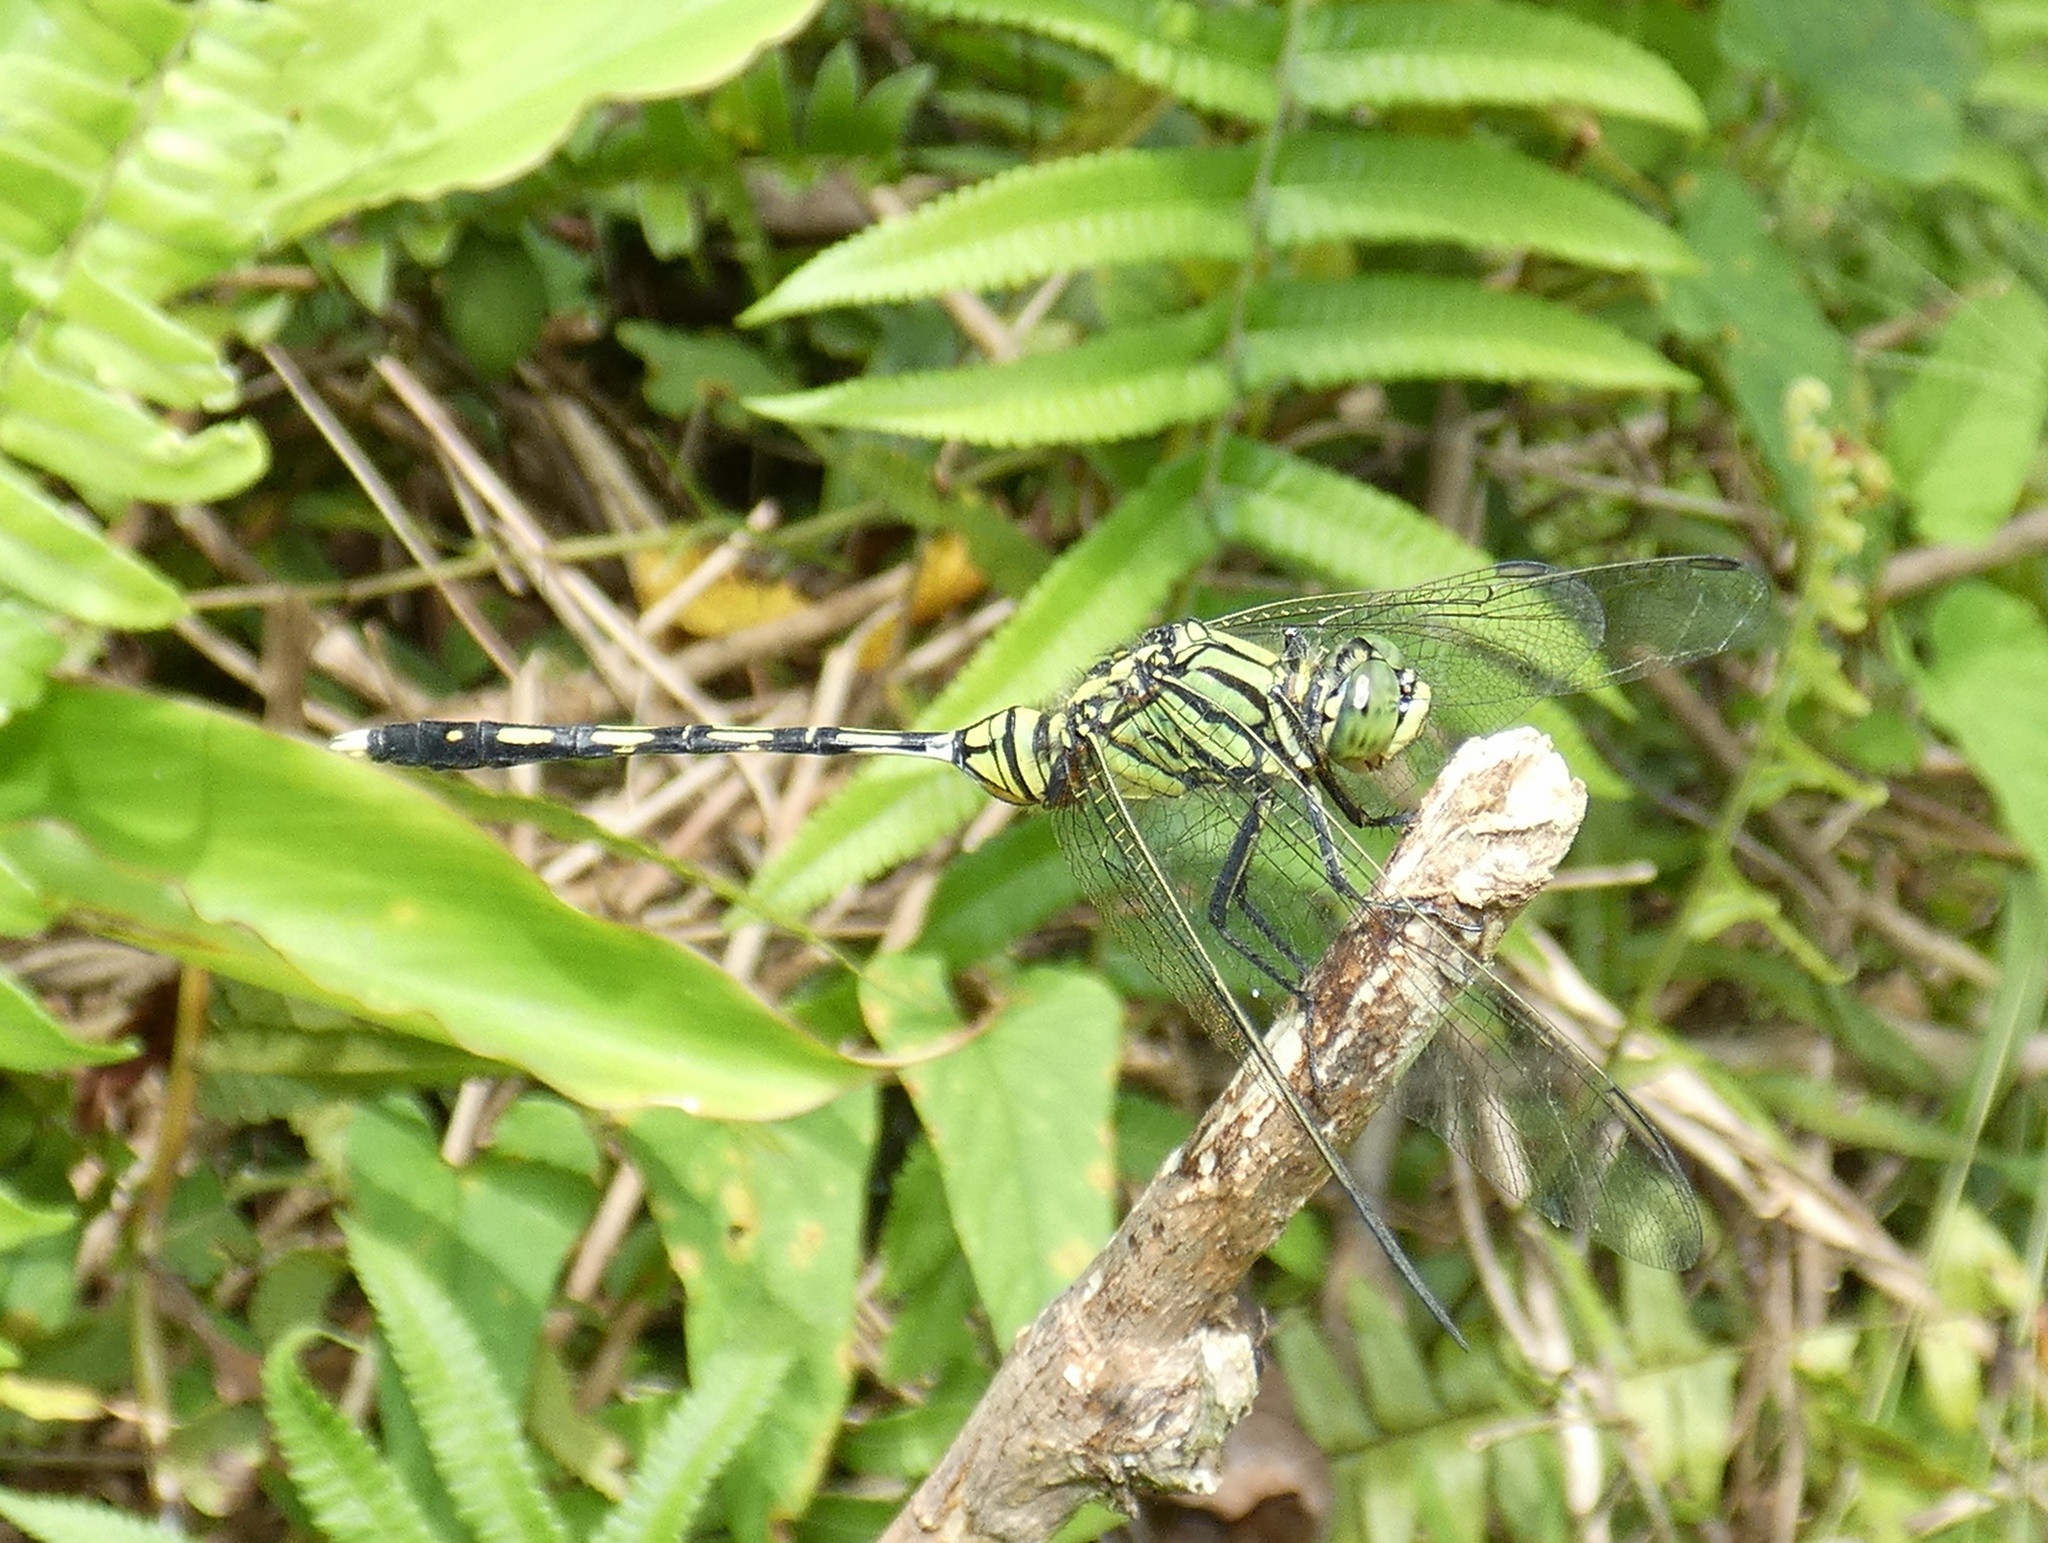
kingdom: Animalia
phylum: Arthropoda
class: Insecta
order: Odonata
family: Libellulidae
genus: Orthetrum
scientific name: Orthetrum serapia
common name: Green skimmer
